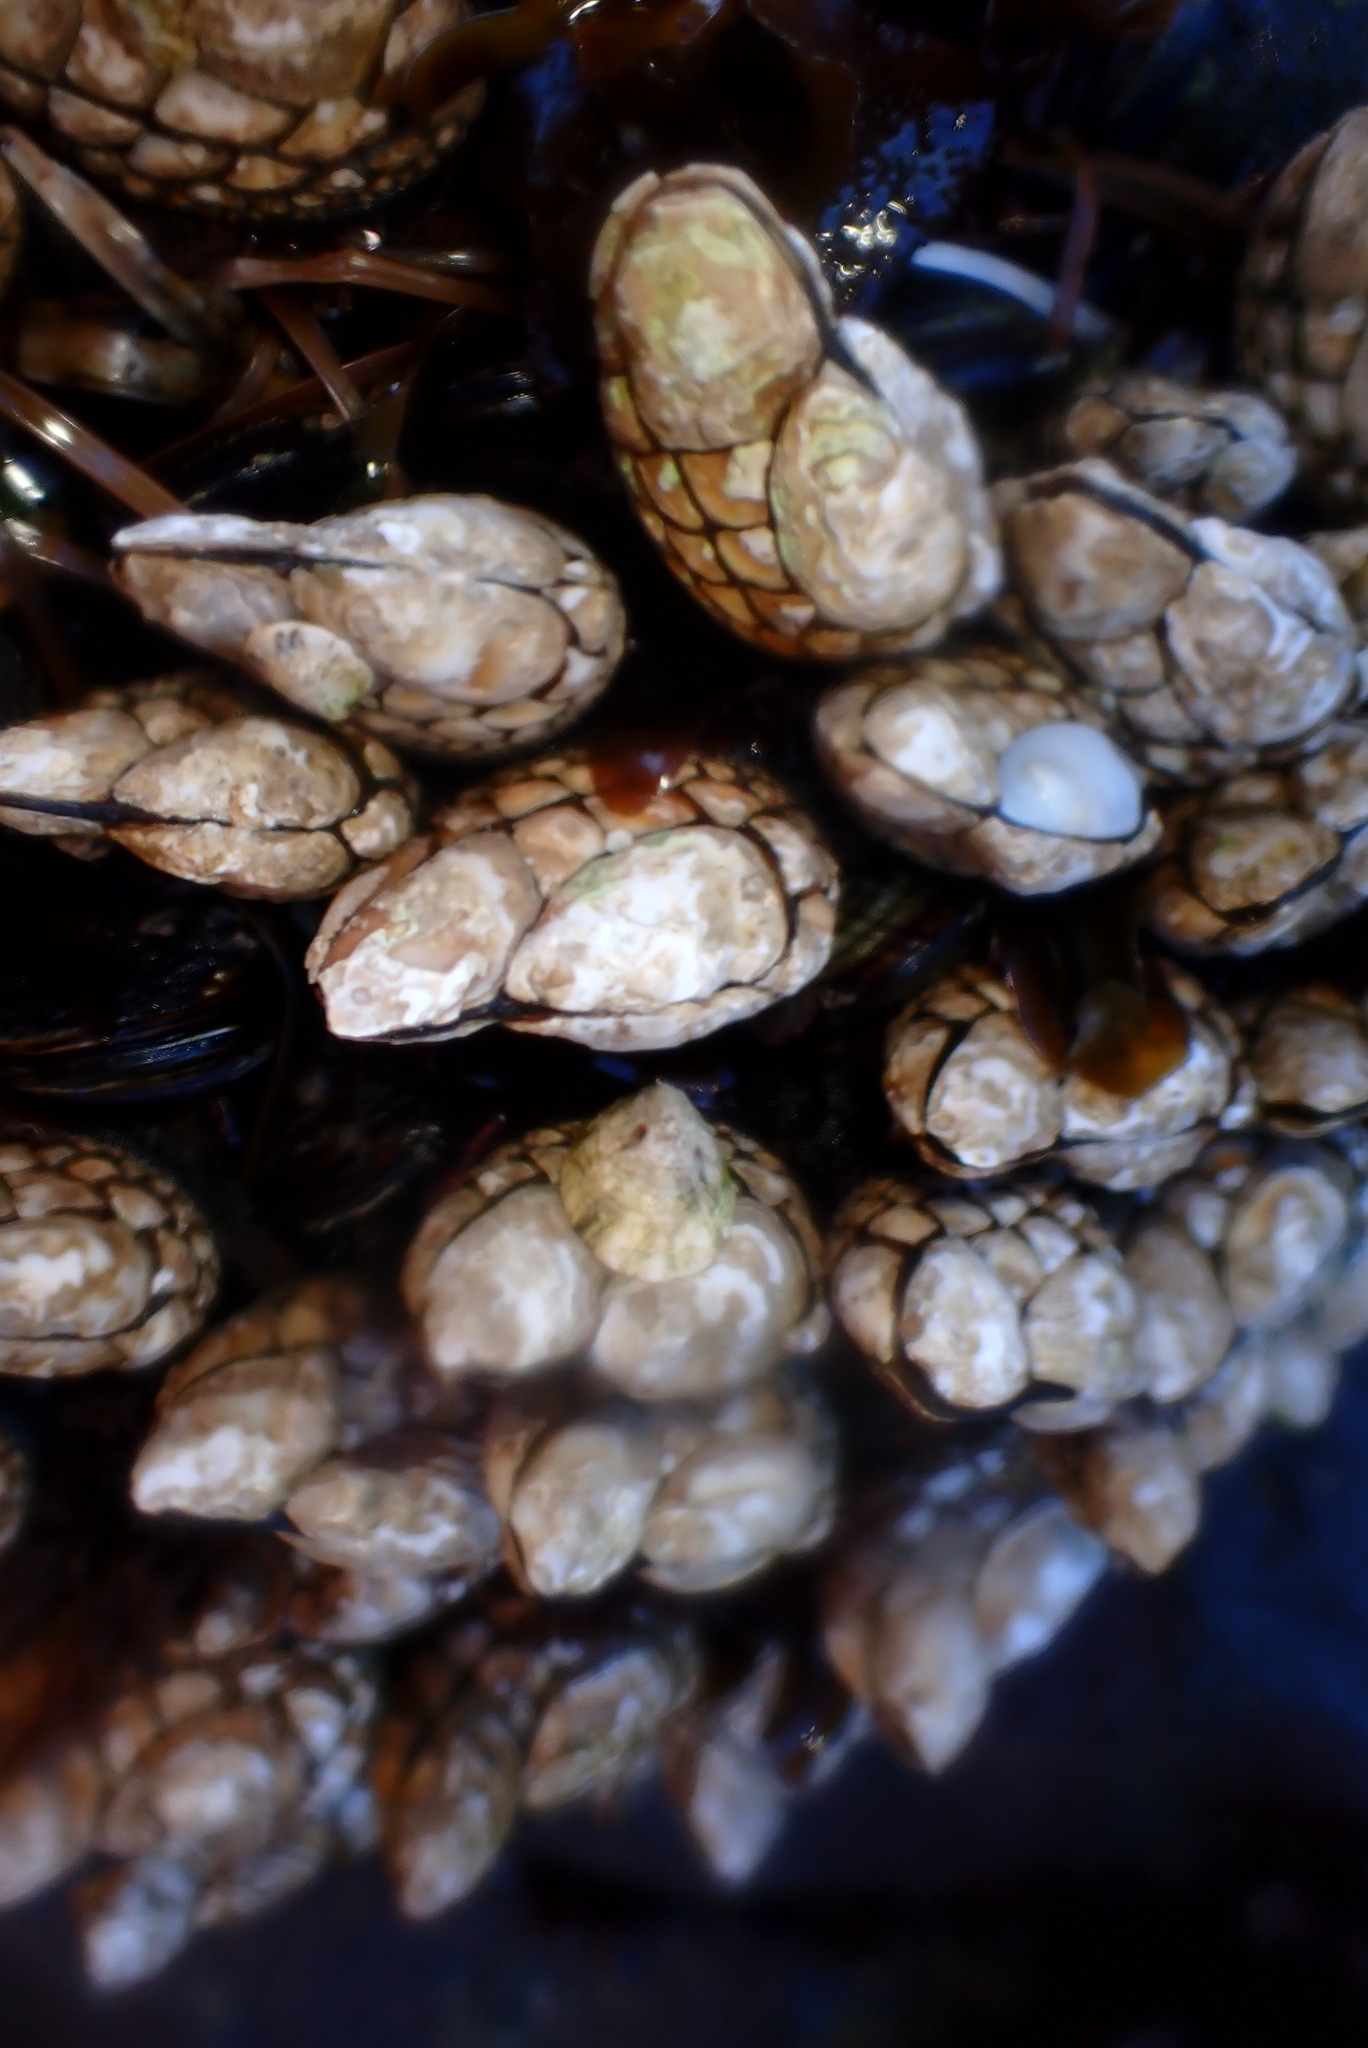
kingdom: Animalia
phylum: Arthropoda
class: Maxillopoda
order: Pedunculata
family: Pollicipedidae
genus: Pollicipes
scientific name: Pollicipes polymerus
